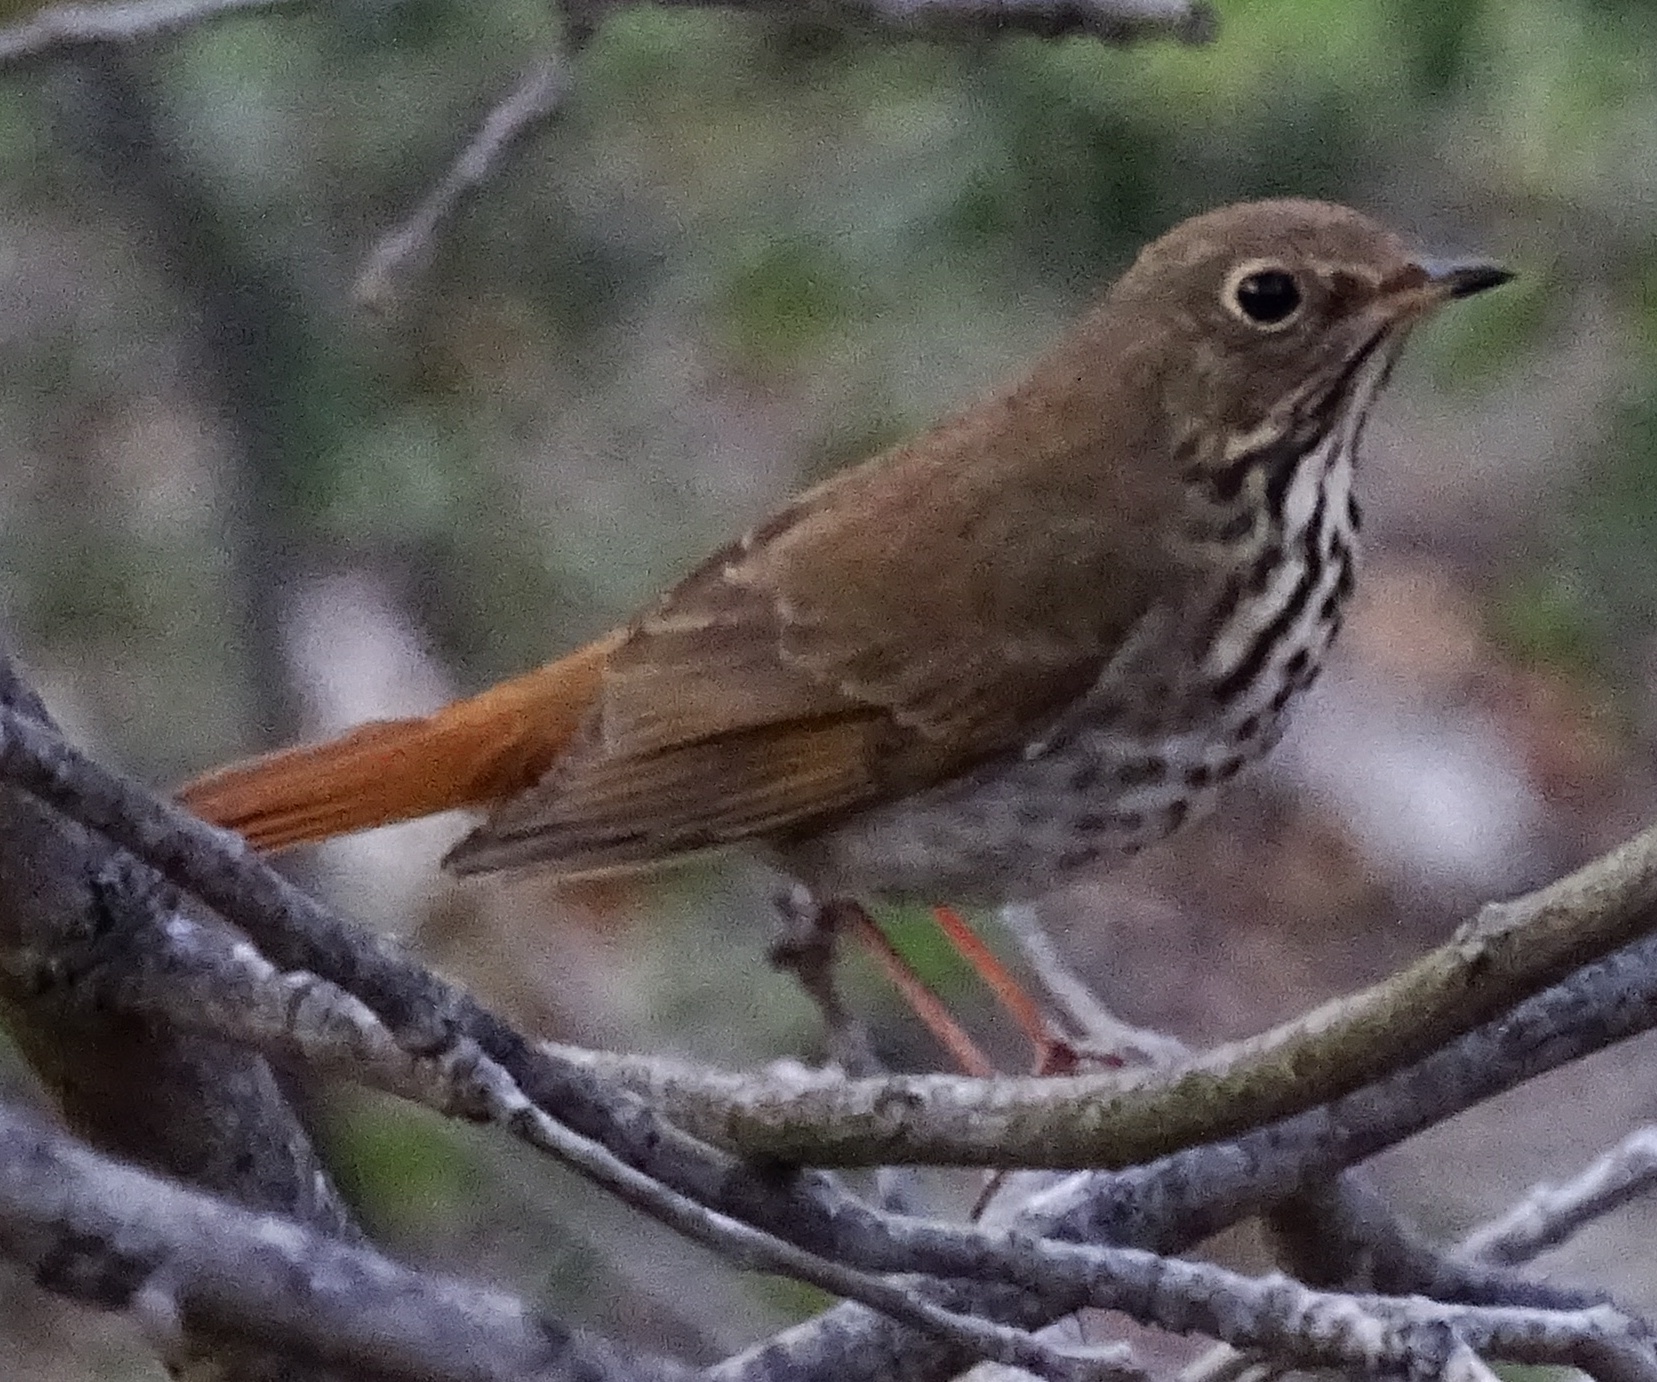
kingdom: Animalia
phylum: Chordata
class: Aves
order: Passeriformes
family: Turdidae
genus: Catharus
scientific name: Catharus guttatus
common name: Hermit thrush
